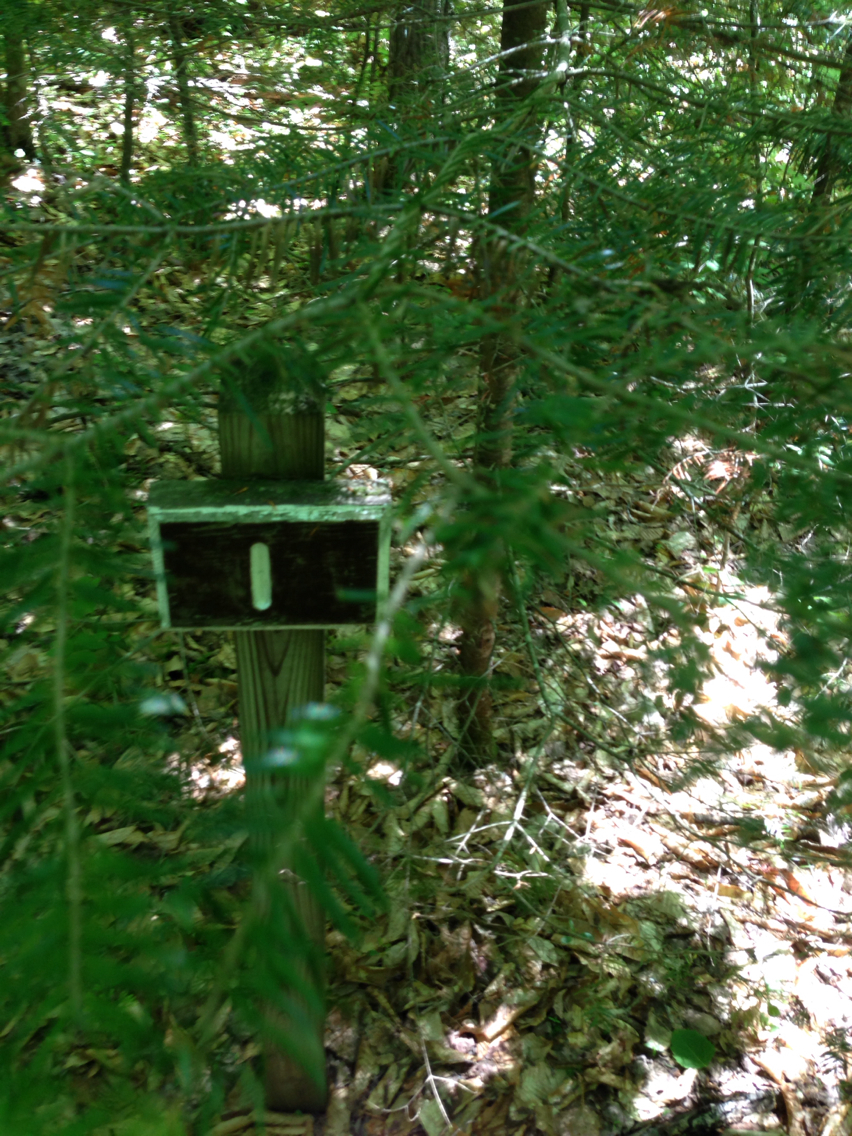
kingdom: Plantae
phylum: Tracheophyta
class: Pinopsida
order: Pinales
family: Pinaceae
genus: Abies
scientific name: Abies balsamea
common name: Balsam fir
